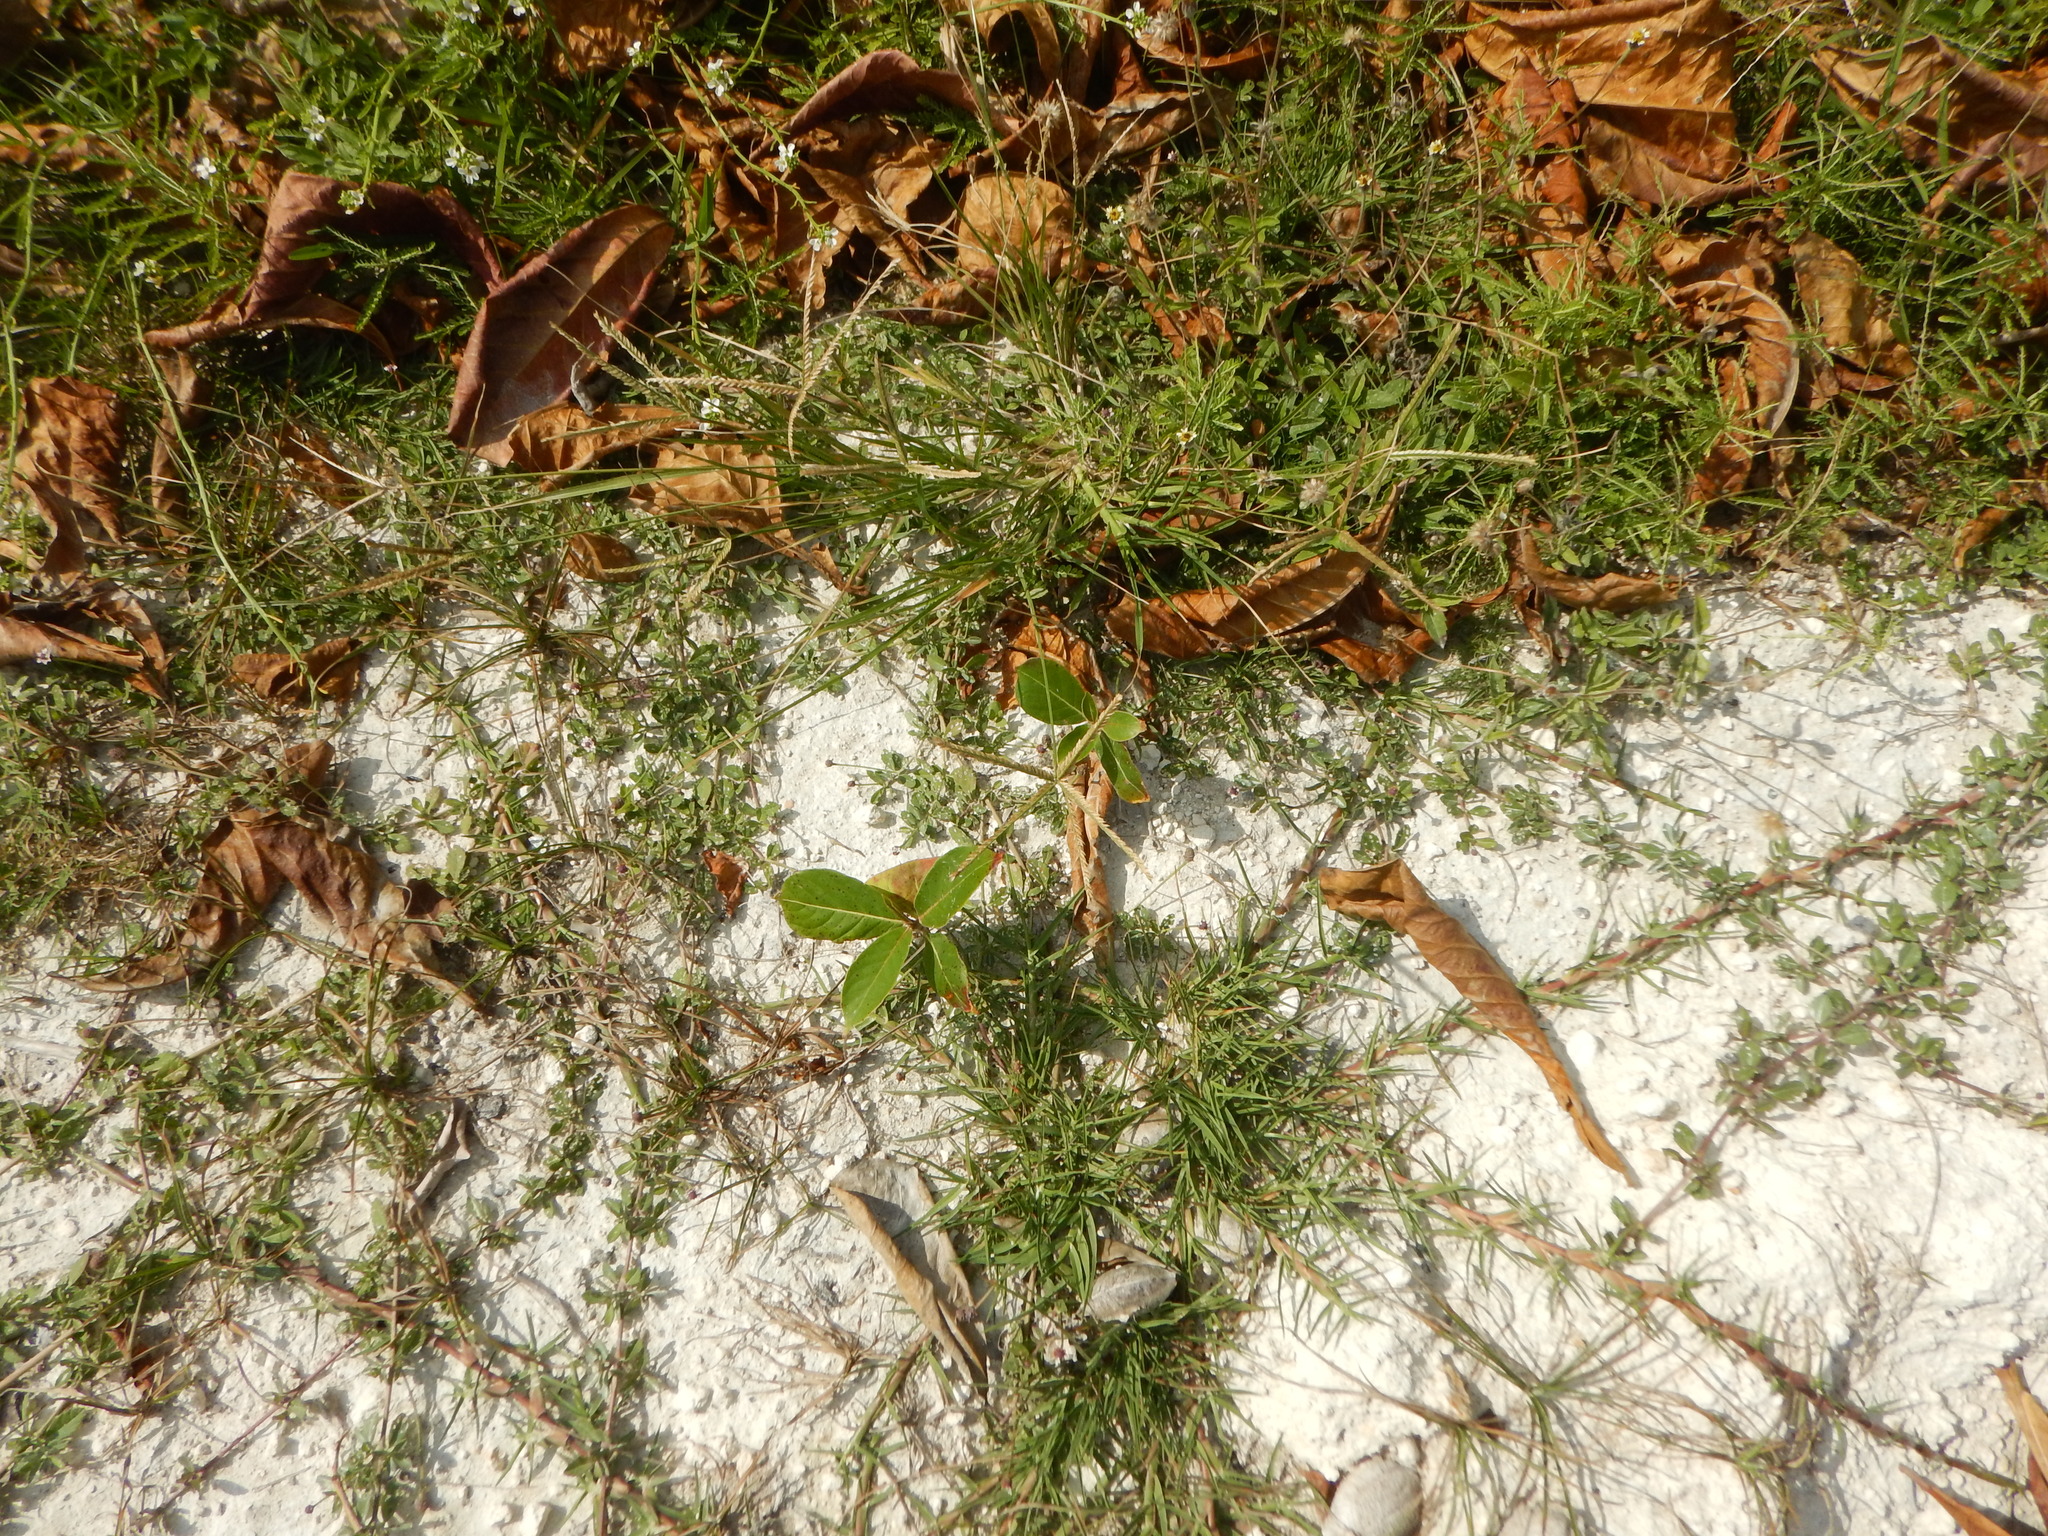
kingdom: Plantae
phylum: Tracheophyta
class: Liliopsida
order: Poales
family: Poaceae
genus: Eleusine
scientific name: Eleusine indica
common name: Yard-grass
